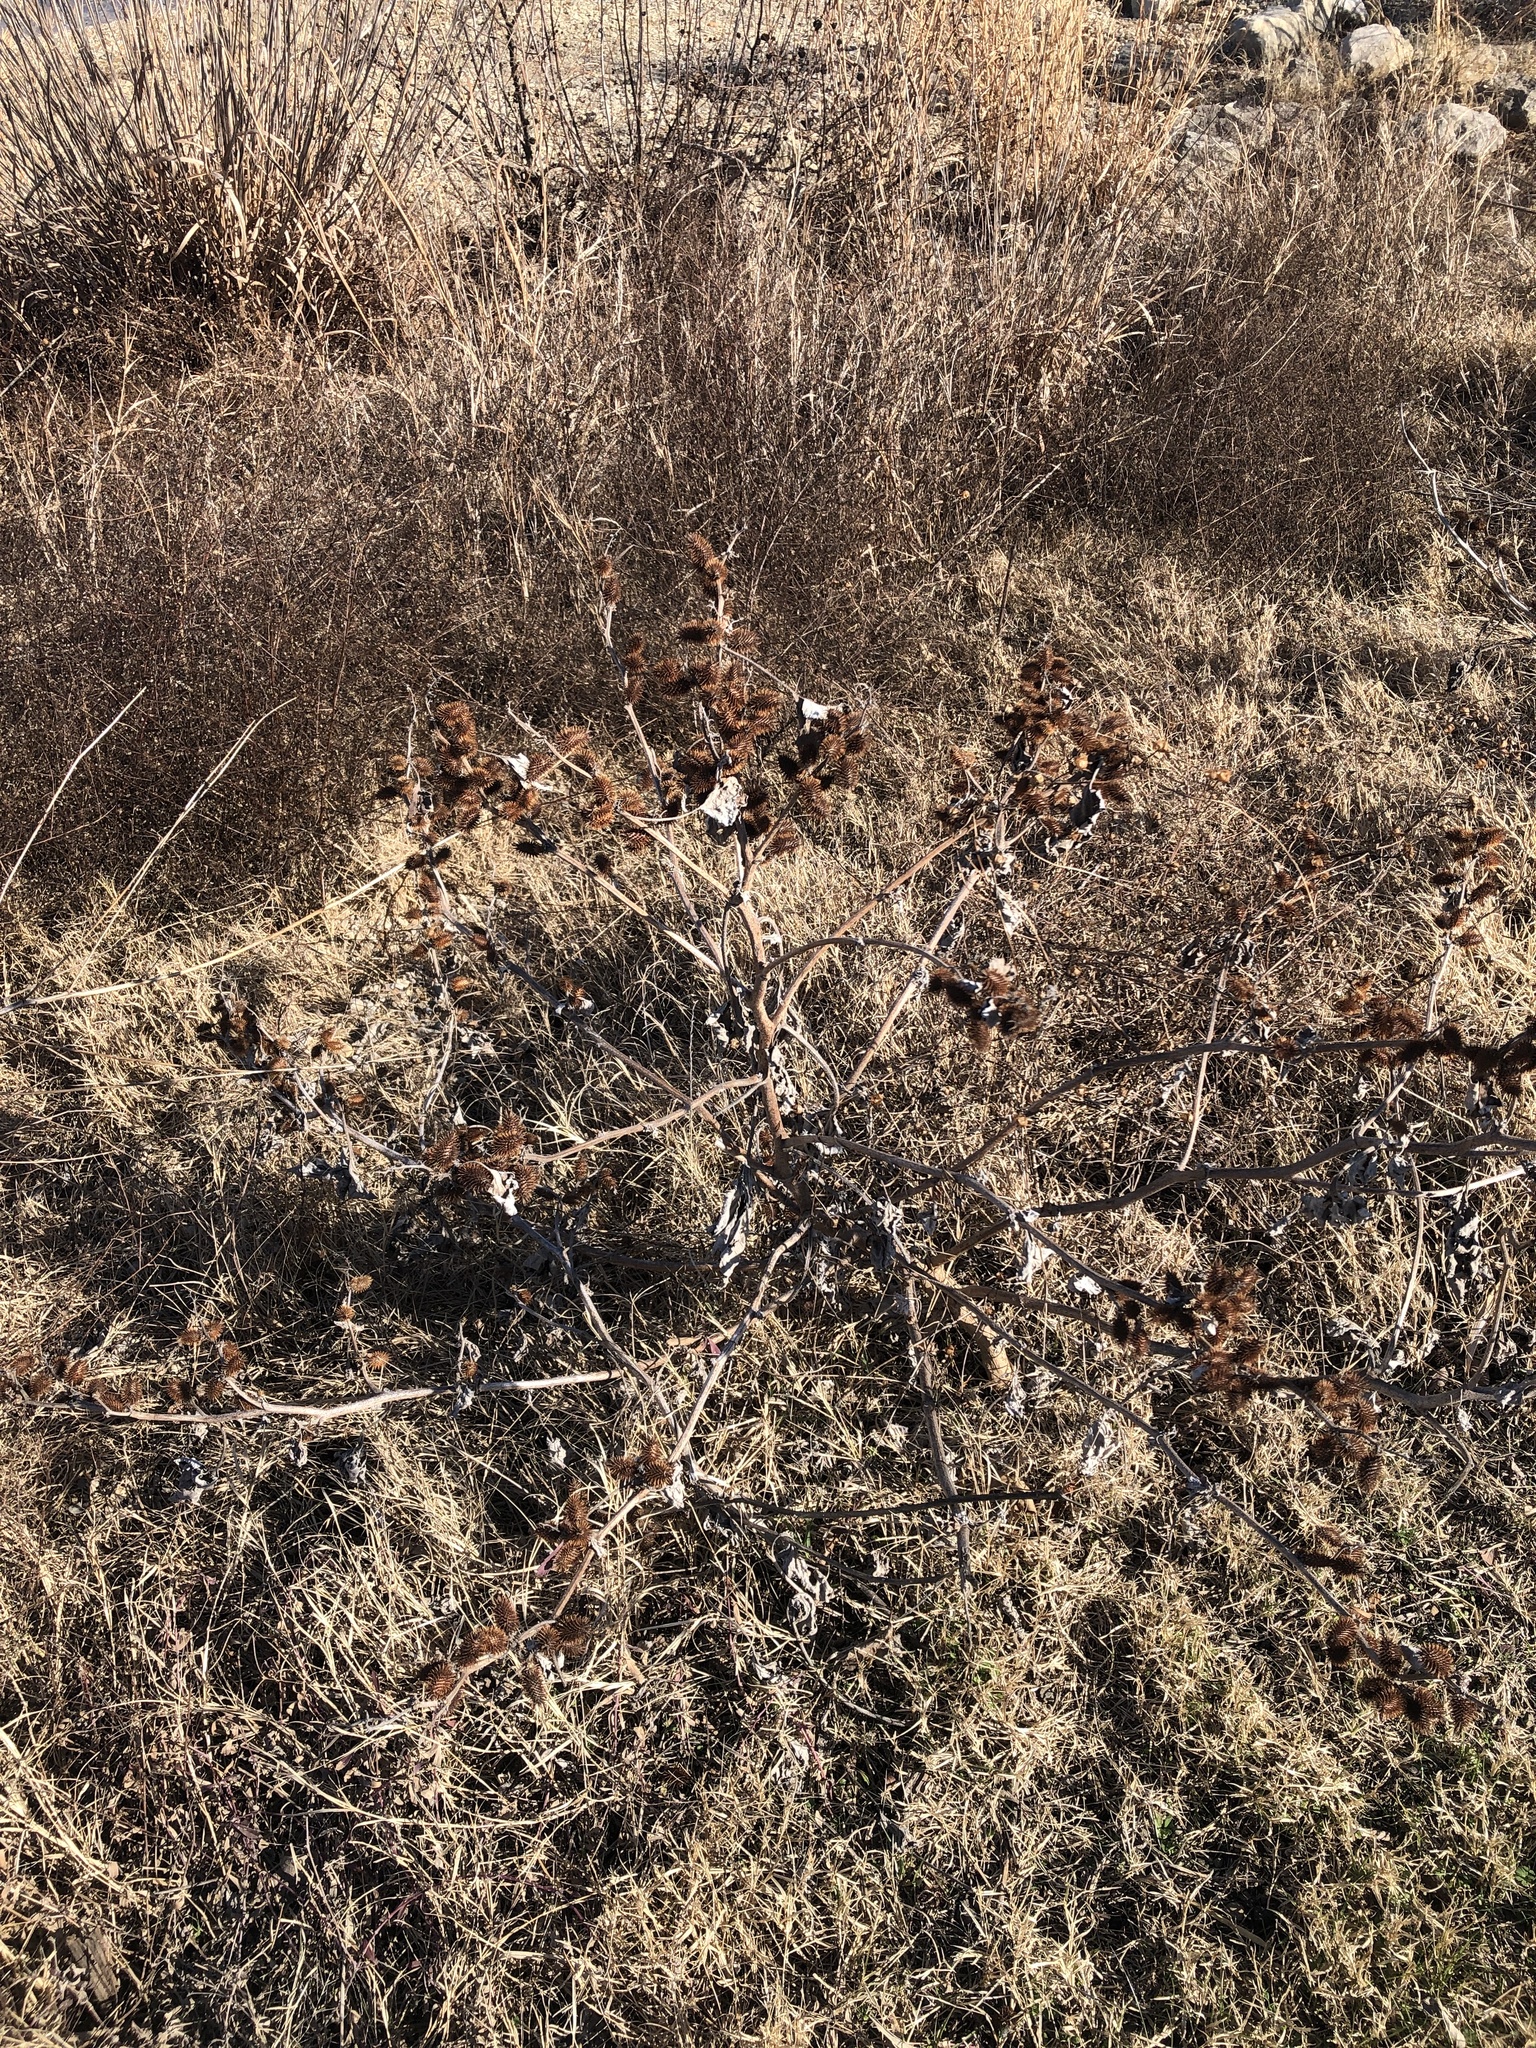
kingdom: Plantae
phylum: Tracheophyta
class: Magnoliopsida
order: Asterales
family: Asteraceae
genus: Xanthium
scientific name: Xanthium strumarium
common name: Rough cocklebur
